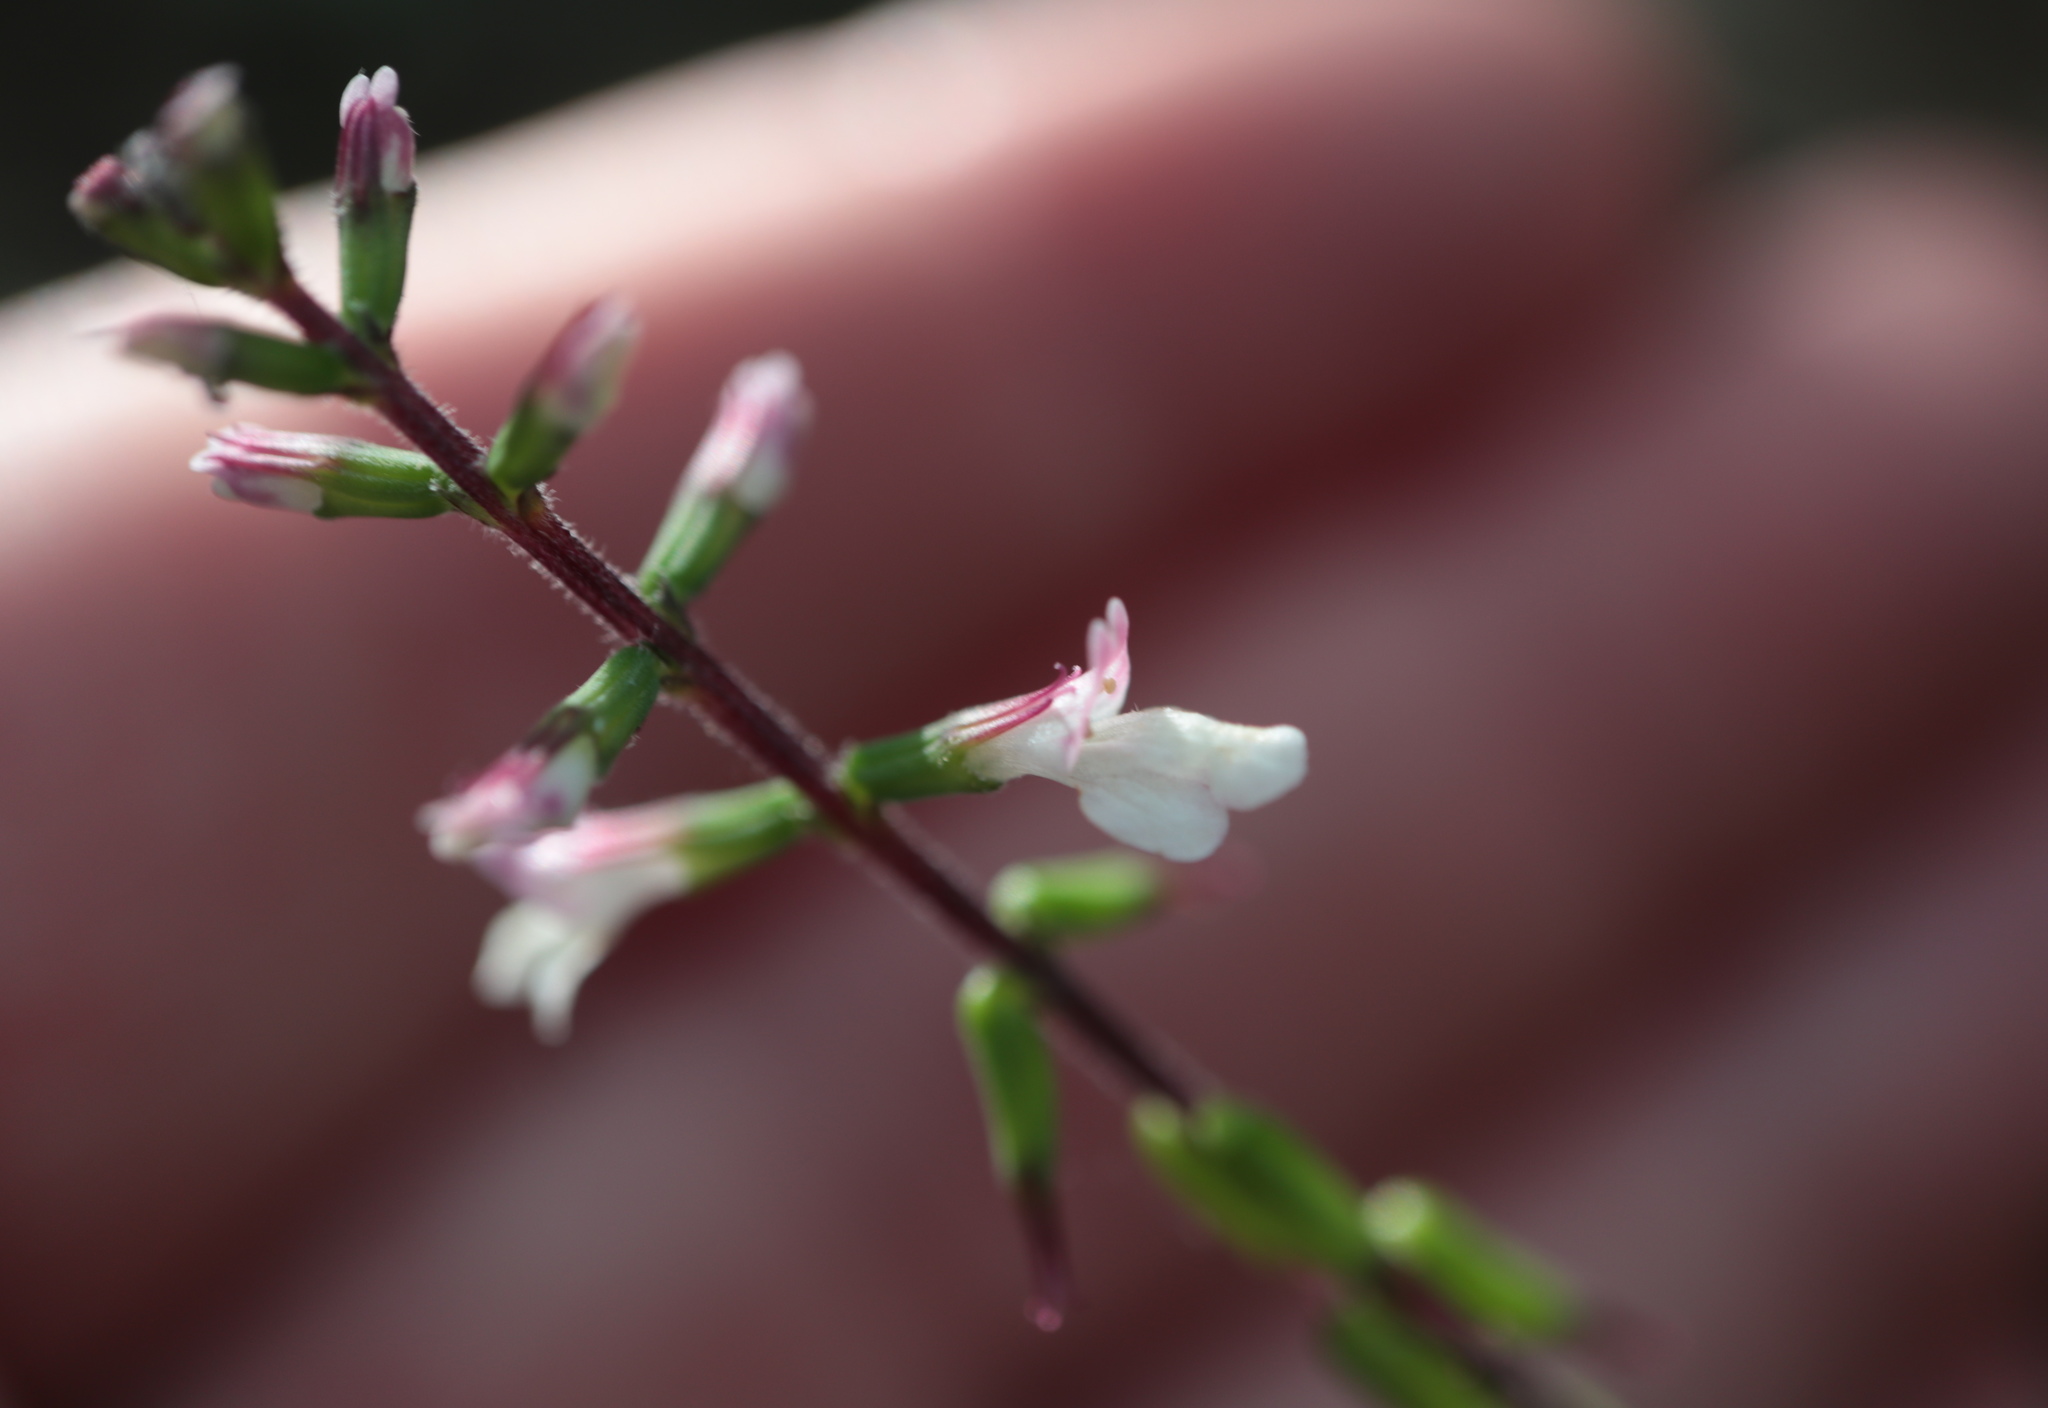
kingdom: Plantae
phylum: Tracheophyta
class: Magnoliopsida
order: Lamiales
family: Phrymaceae
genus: Phryma
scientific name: Phryma leptostachya
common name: American lopseed
